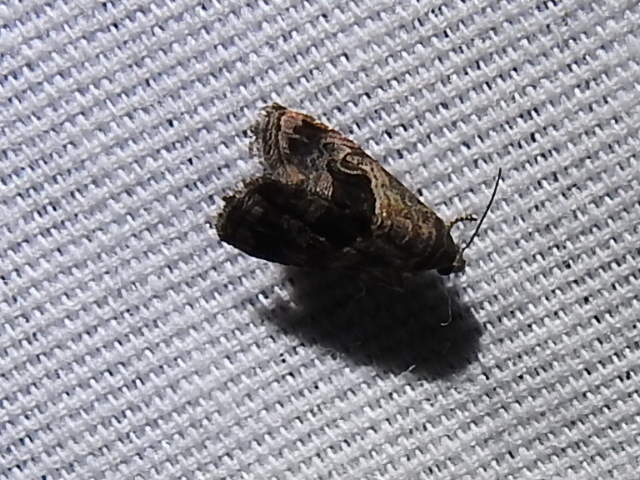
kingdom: Animalia
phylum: Arthropoda
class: Insecta
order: Lepidoptera
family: Noctuidae
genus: Tripudia
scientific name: Tripudia quadrifera
